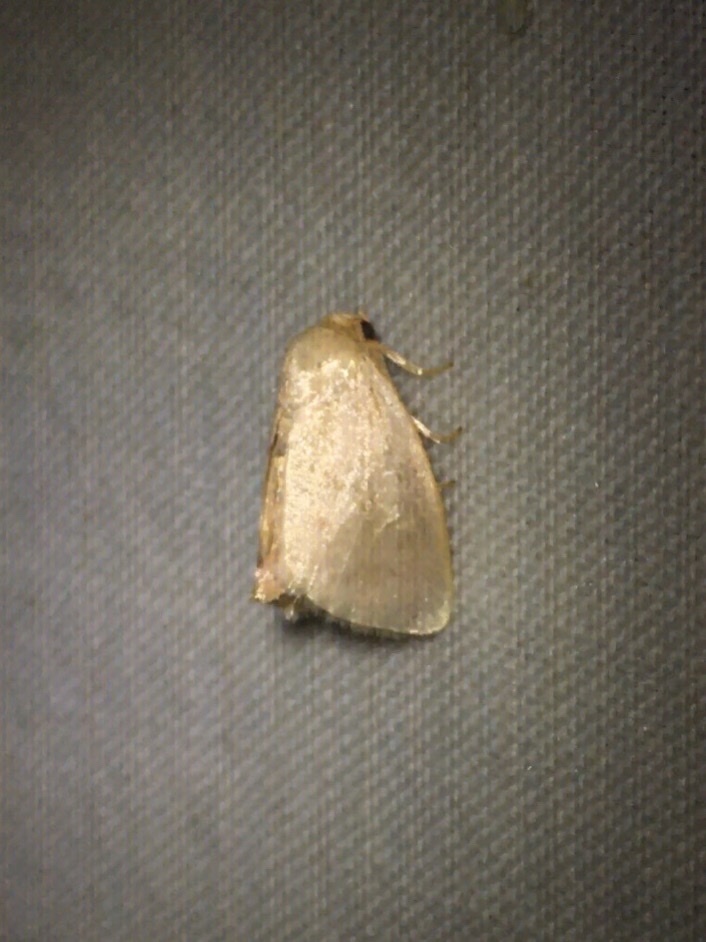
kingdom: Animalia
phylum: Arthropoda
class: Insecta
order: Lepidoptera
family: Limacodidae
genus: Tortricidia
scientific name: Tortricidia pallida
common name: Red-crossed button slug moth
